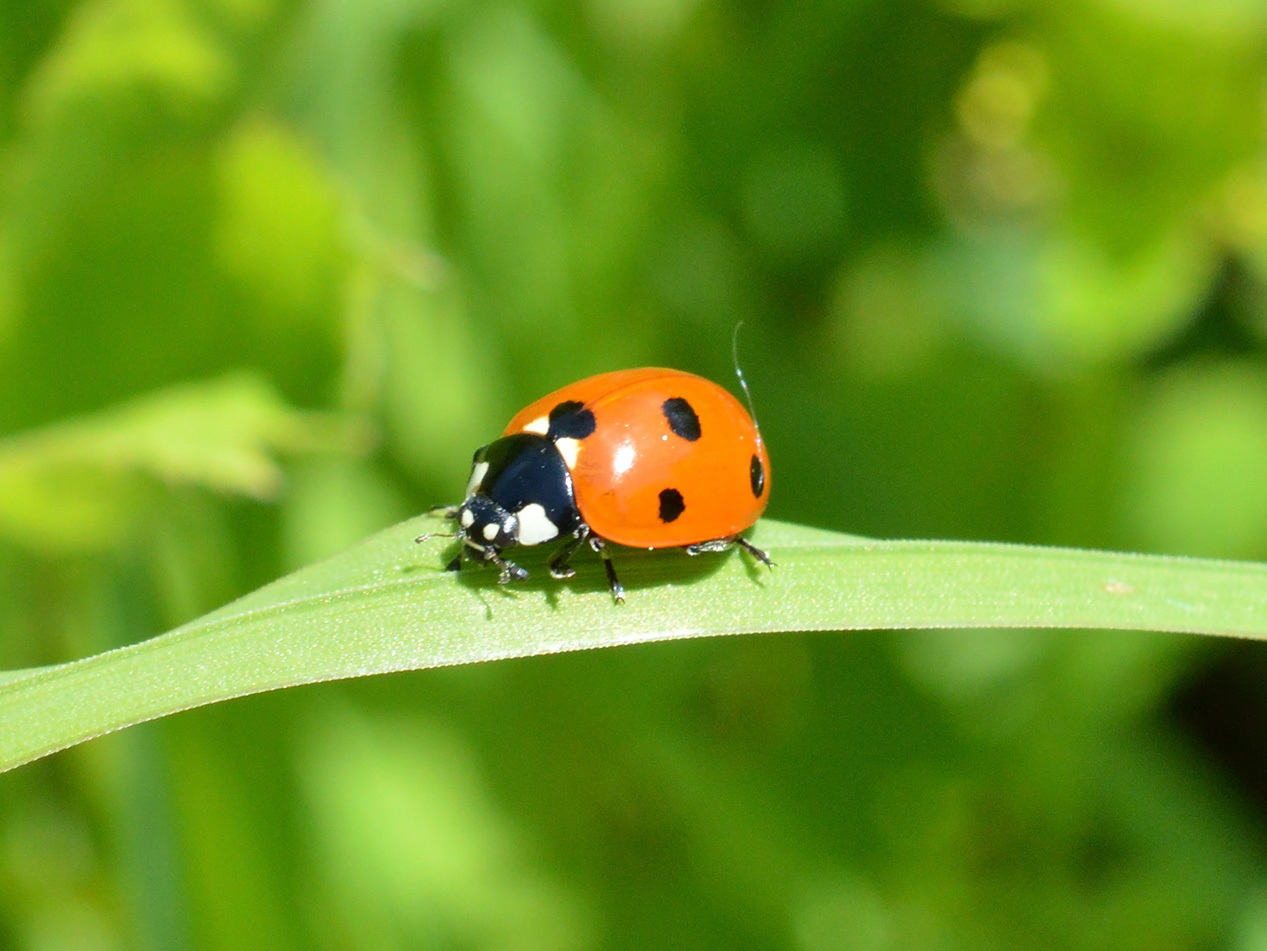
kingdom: Animalia
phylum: Arthropoda
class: Insecta
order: Coleoptera
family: Coccinellidae
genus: Coccinella
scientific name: Coccinella septempunctata
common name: Sevenspotted lady beetle
